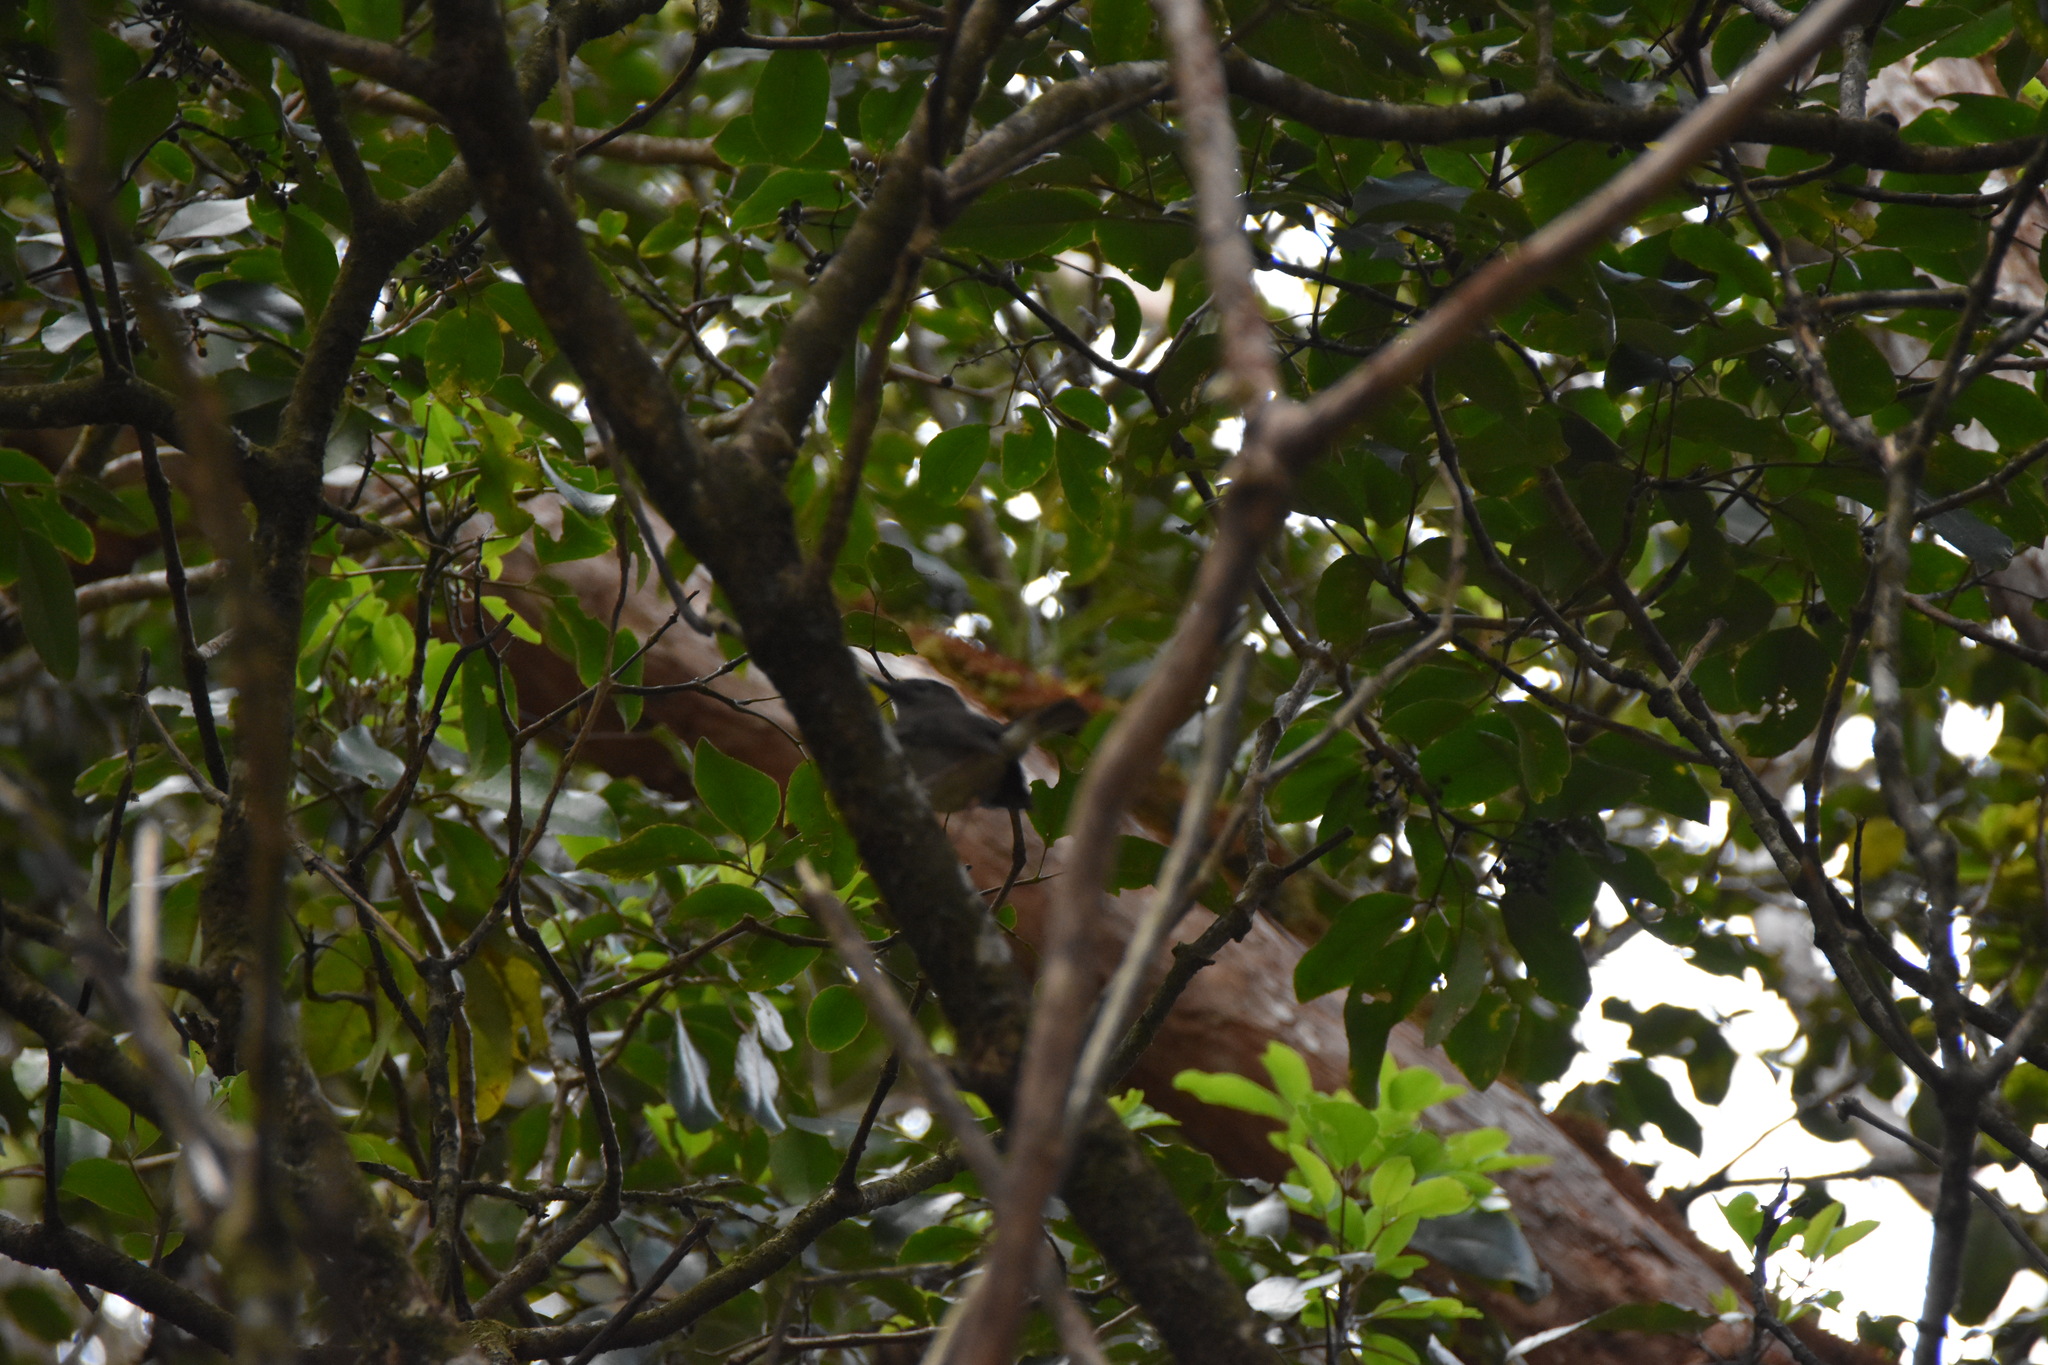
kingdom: Plantae
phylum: Tracheophyta
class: Magnoliopsida
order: Apiales
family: Araliaceae
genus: Cheirodendron
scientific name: Cheirodendron trigynum
